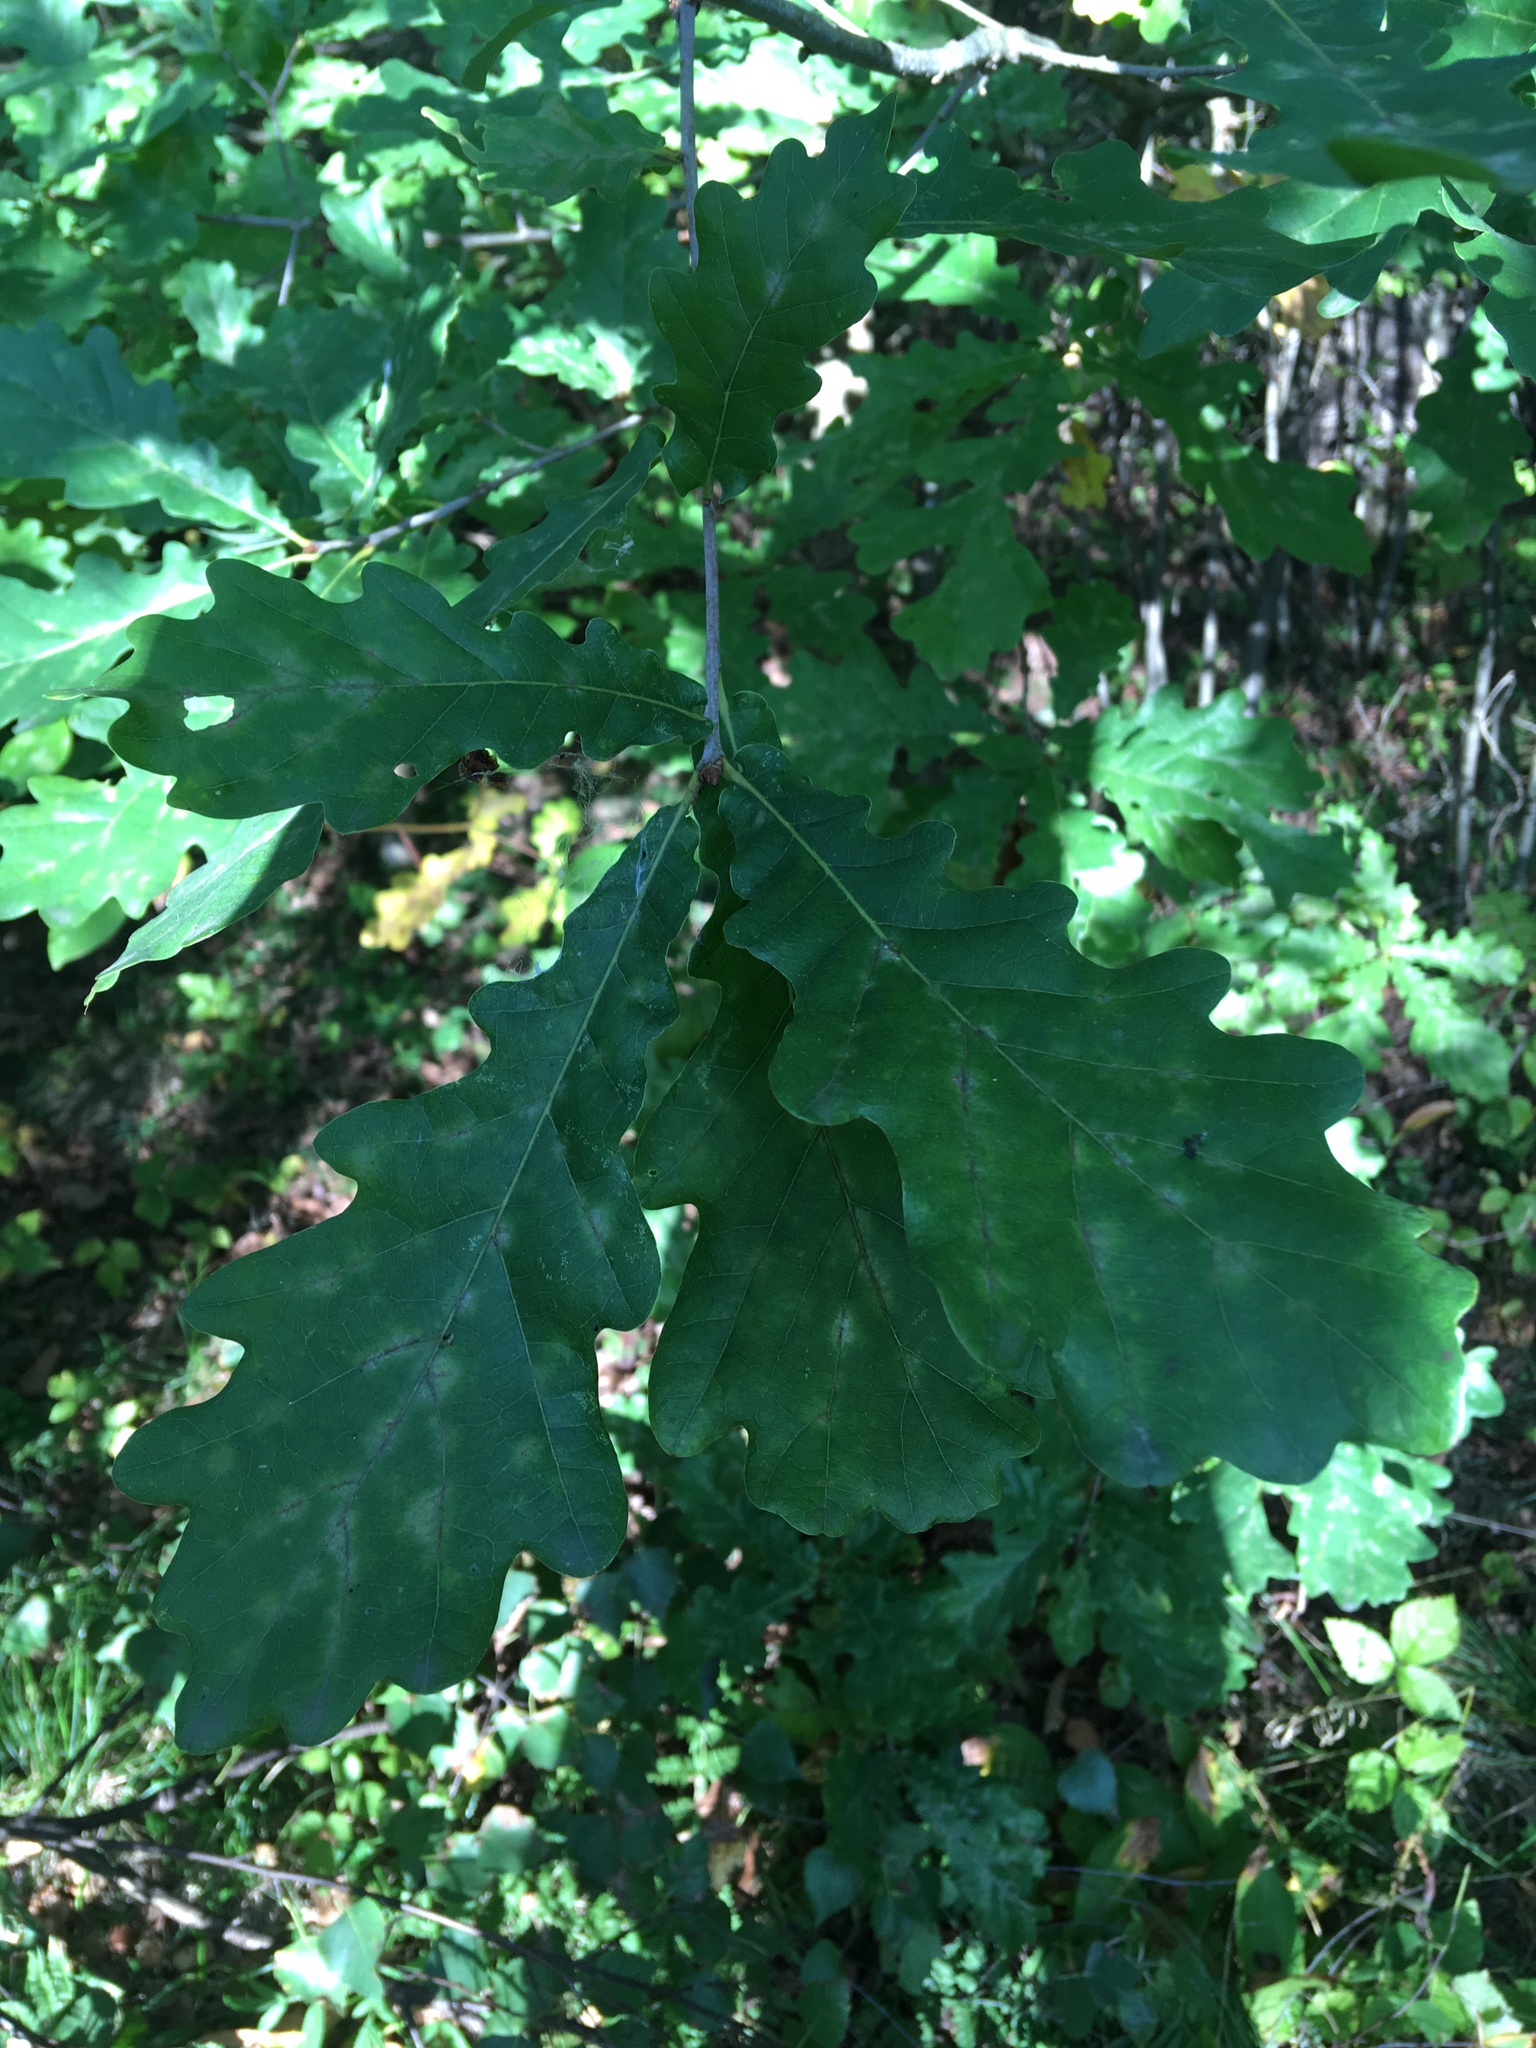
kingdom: Plantae
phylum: Tracheophyta
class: Magnoliopsida
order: Fagales
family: Fagaceae
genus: Quercus
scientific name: Quercus robur
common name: Pedunculate oak
